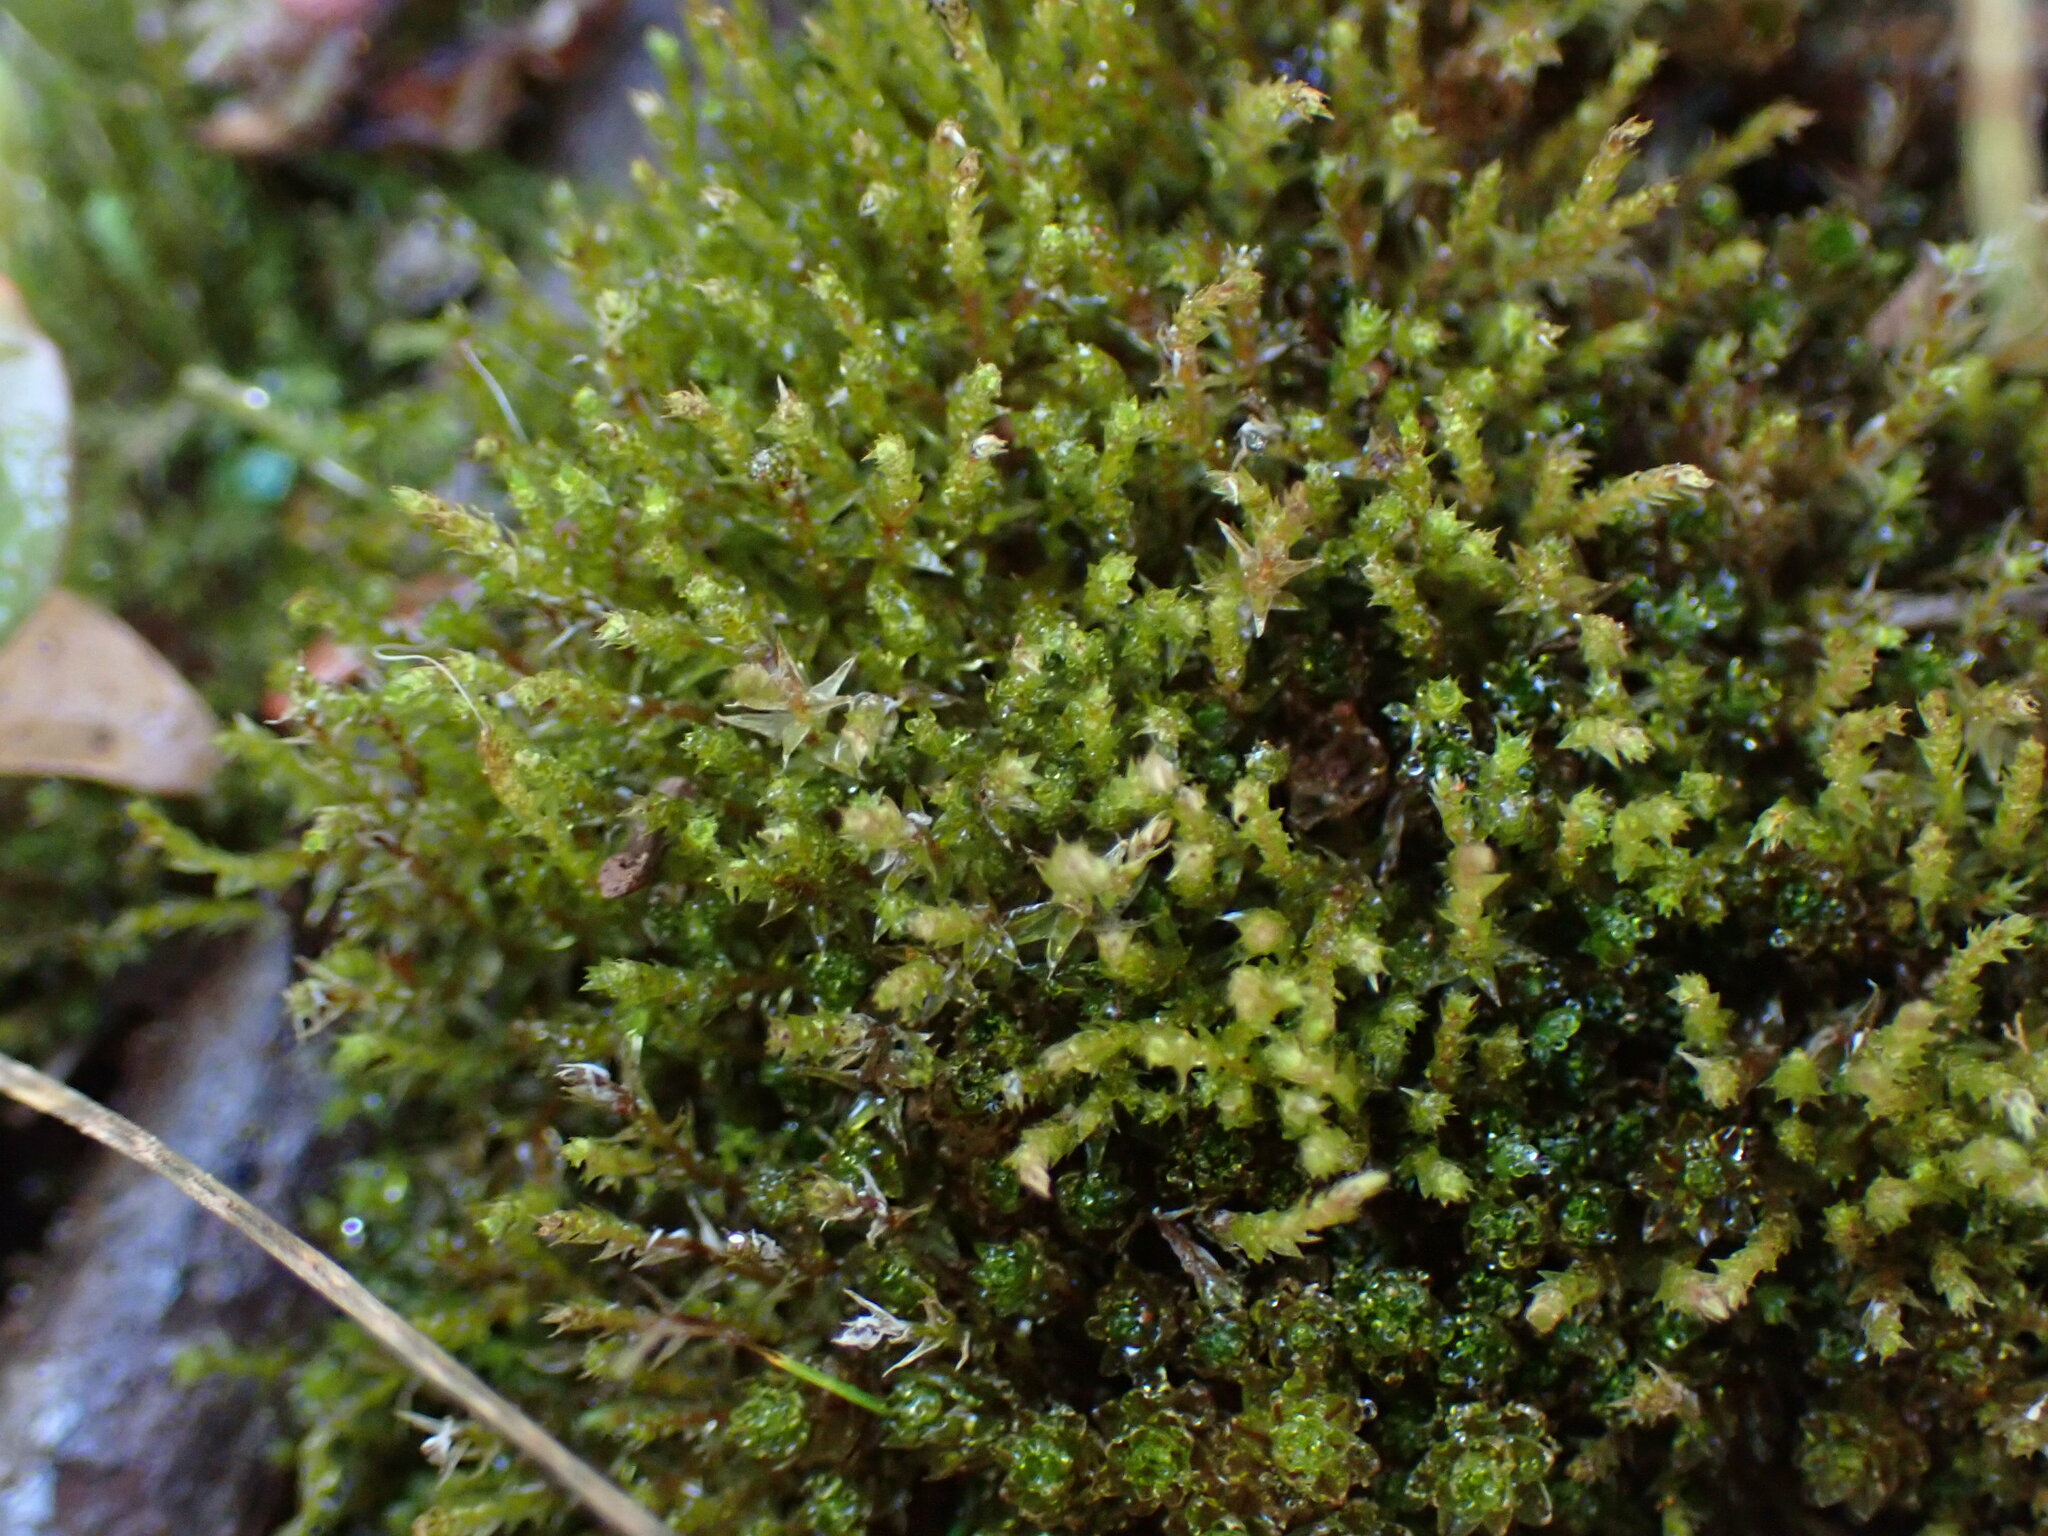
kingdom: Plantae
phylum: Bryophyta
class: Bryopsida
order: Bryales
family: Mniaceae
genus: Pohlia
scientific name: Pohlia bulbifera
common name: Blunt-bud nodding moss
